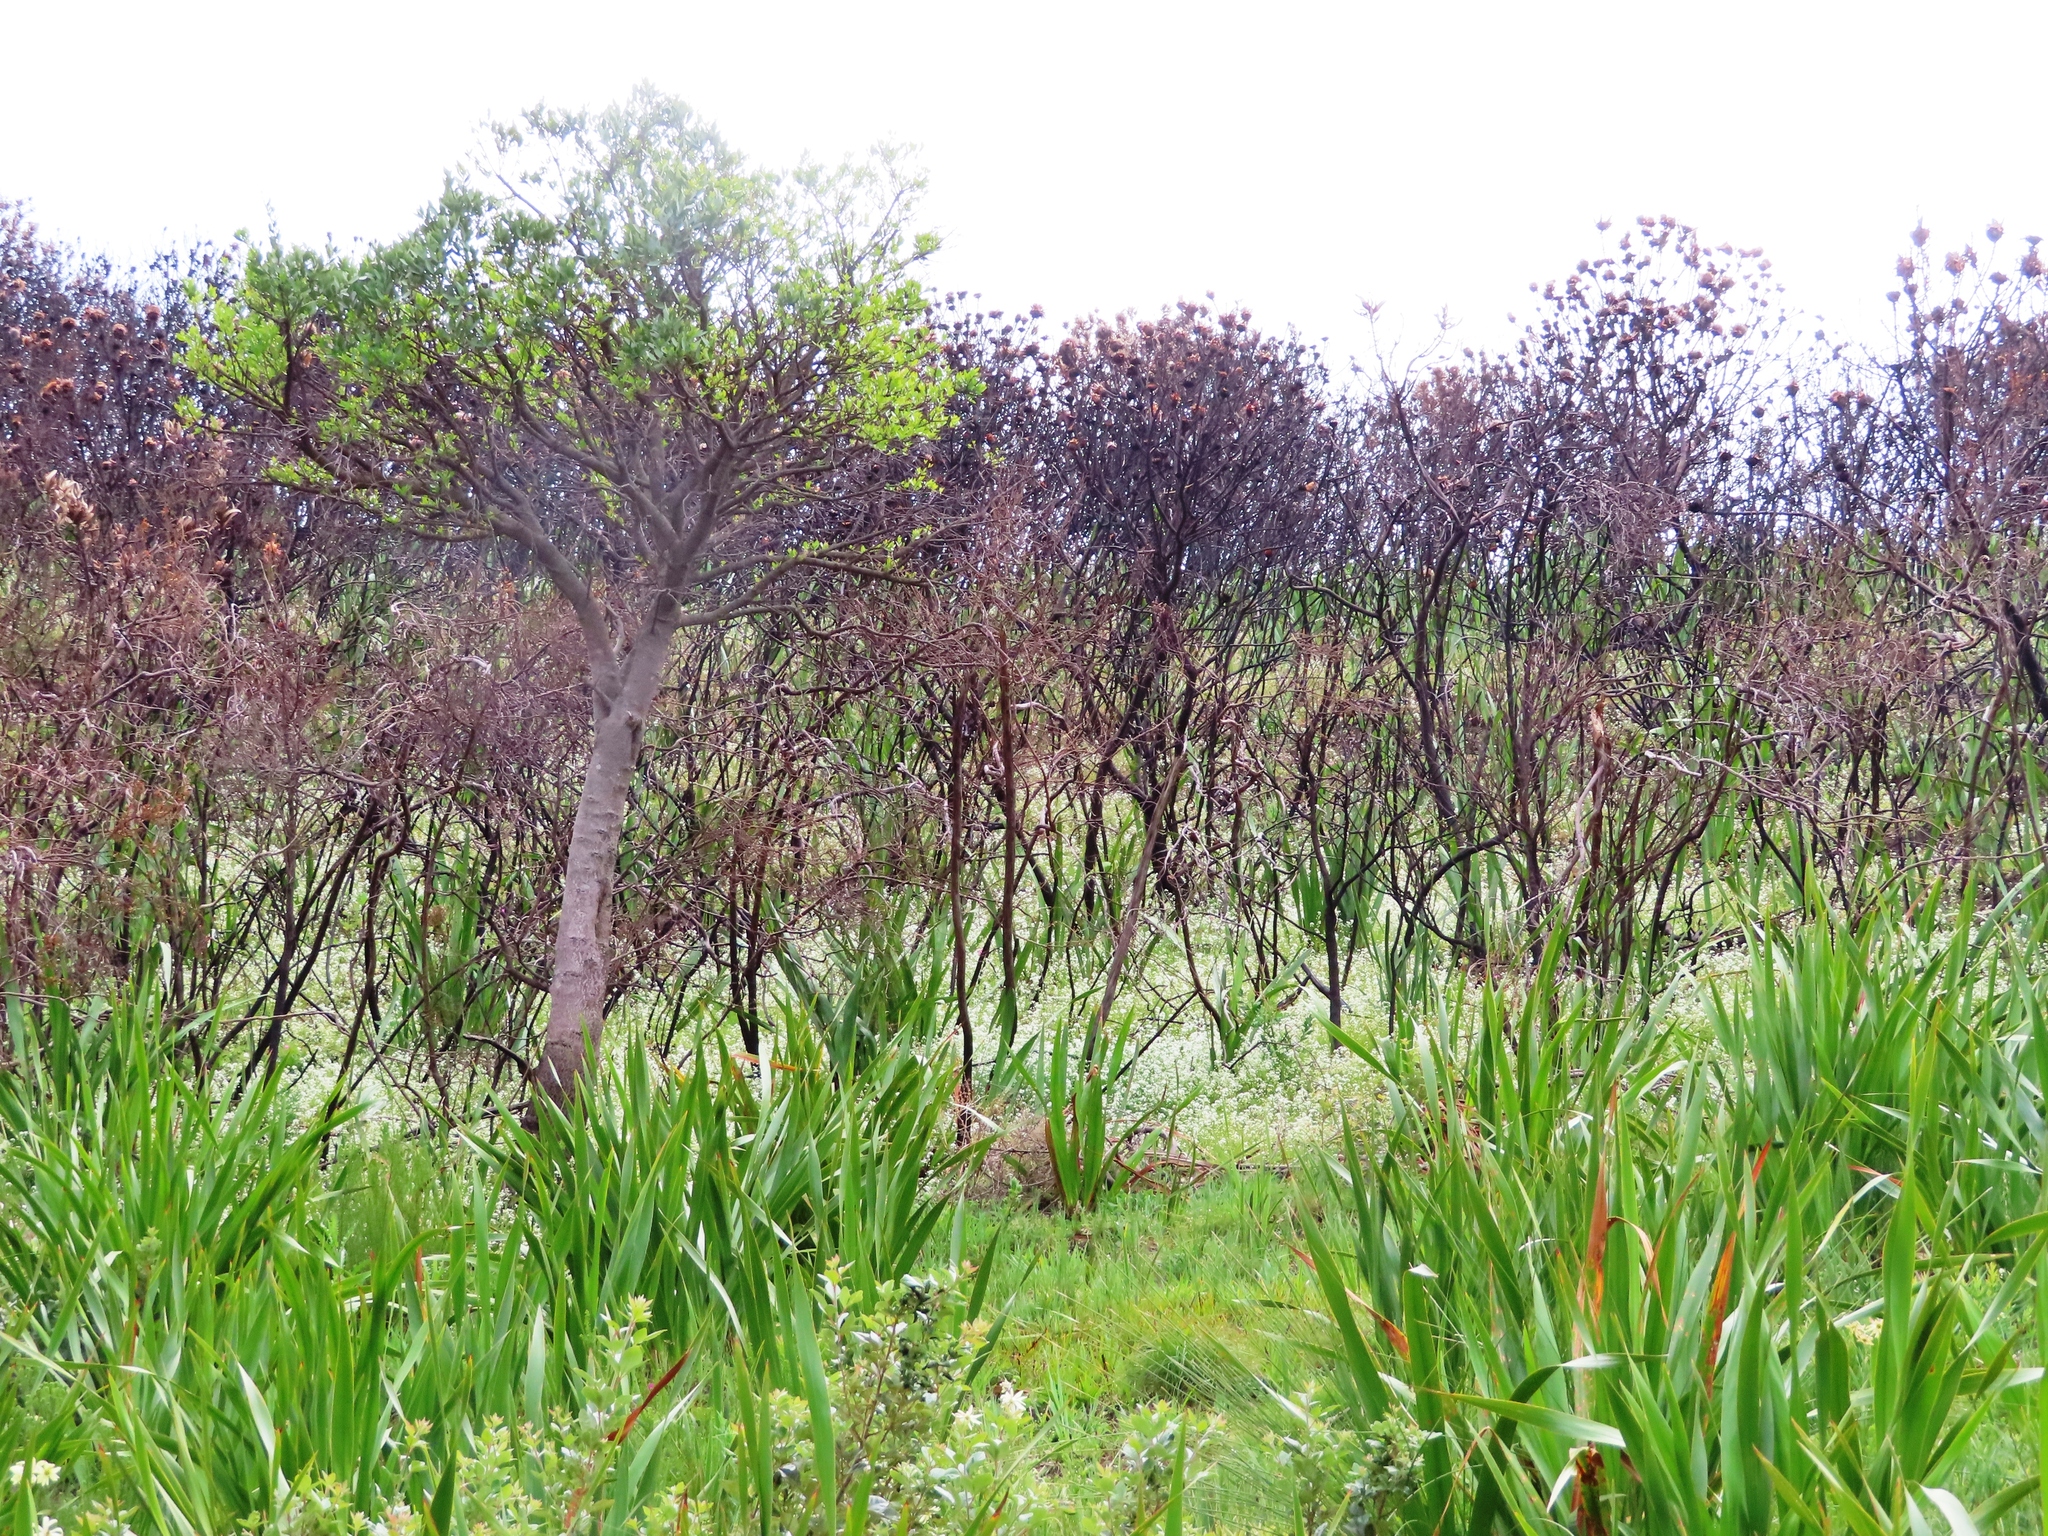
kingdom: Plantae
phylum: Tracheophyta
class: Magnoliopsida
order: Brassicales
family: Brassicaceae
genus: Heliophila
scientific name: Heliophila diffusa
